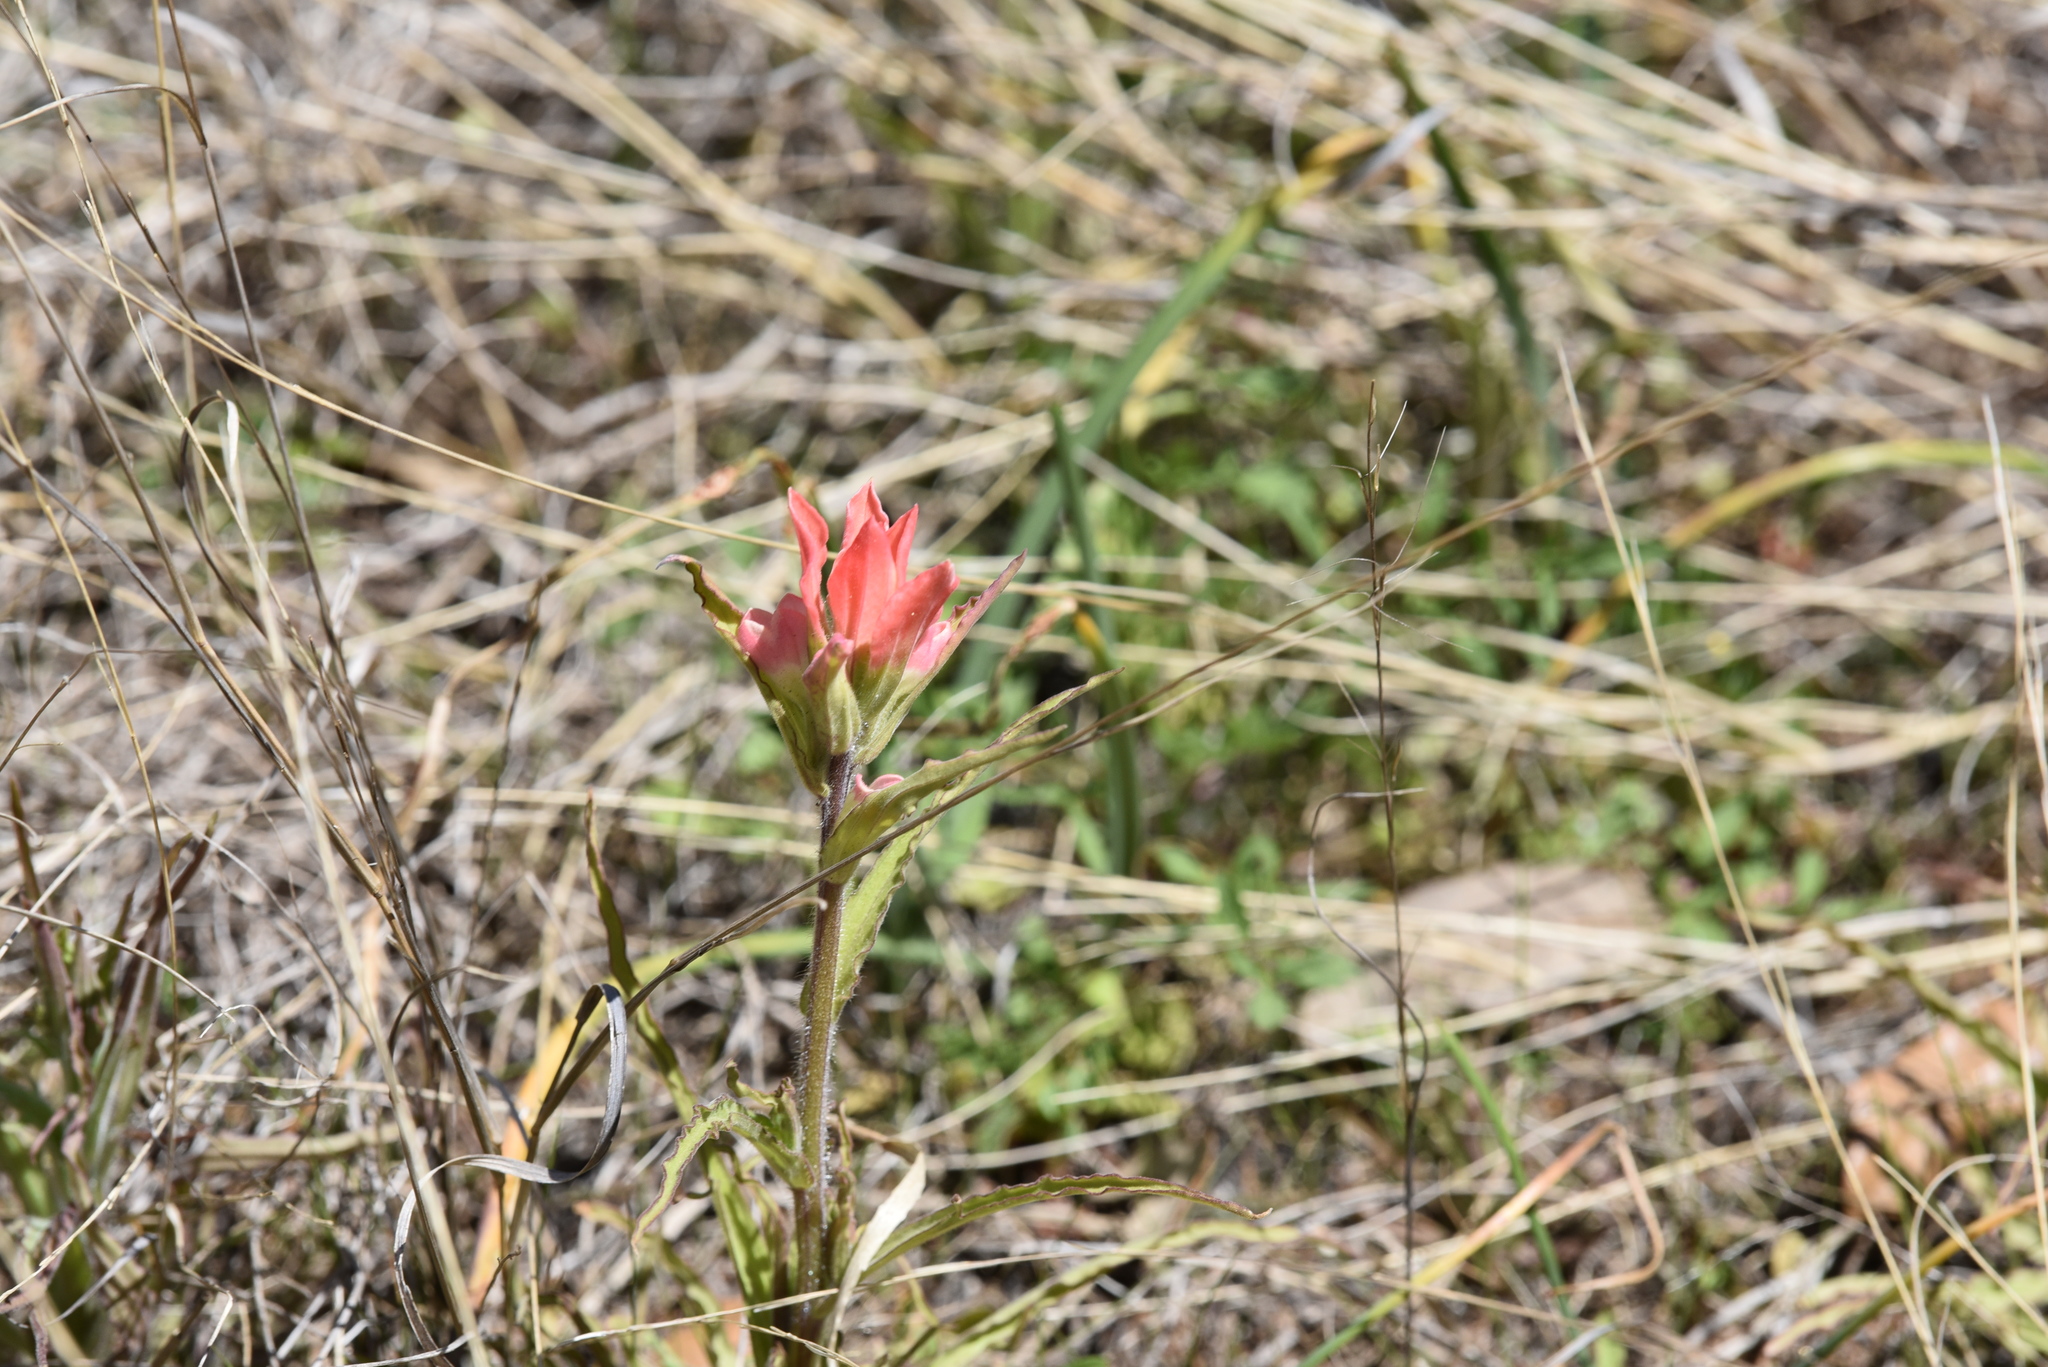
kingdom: Plantae
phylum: Tracheophyta
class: Magnoliopsida
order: Lamiales
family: Orobanchaceae
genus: Castilleja
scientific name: Castilleja indivisa
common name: Texas paintbrush
